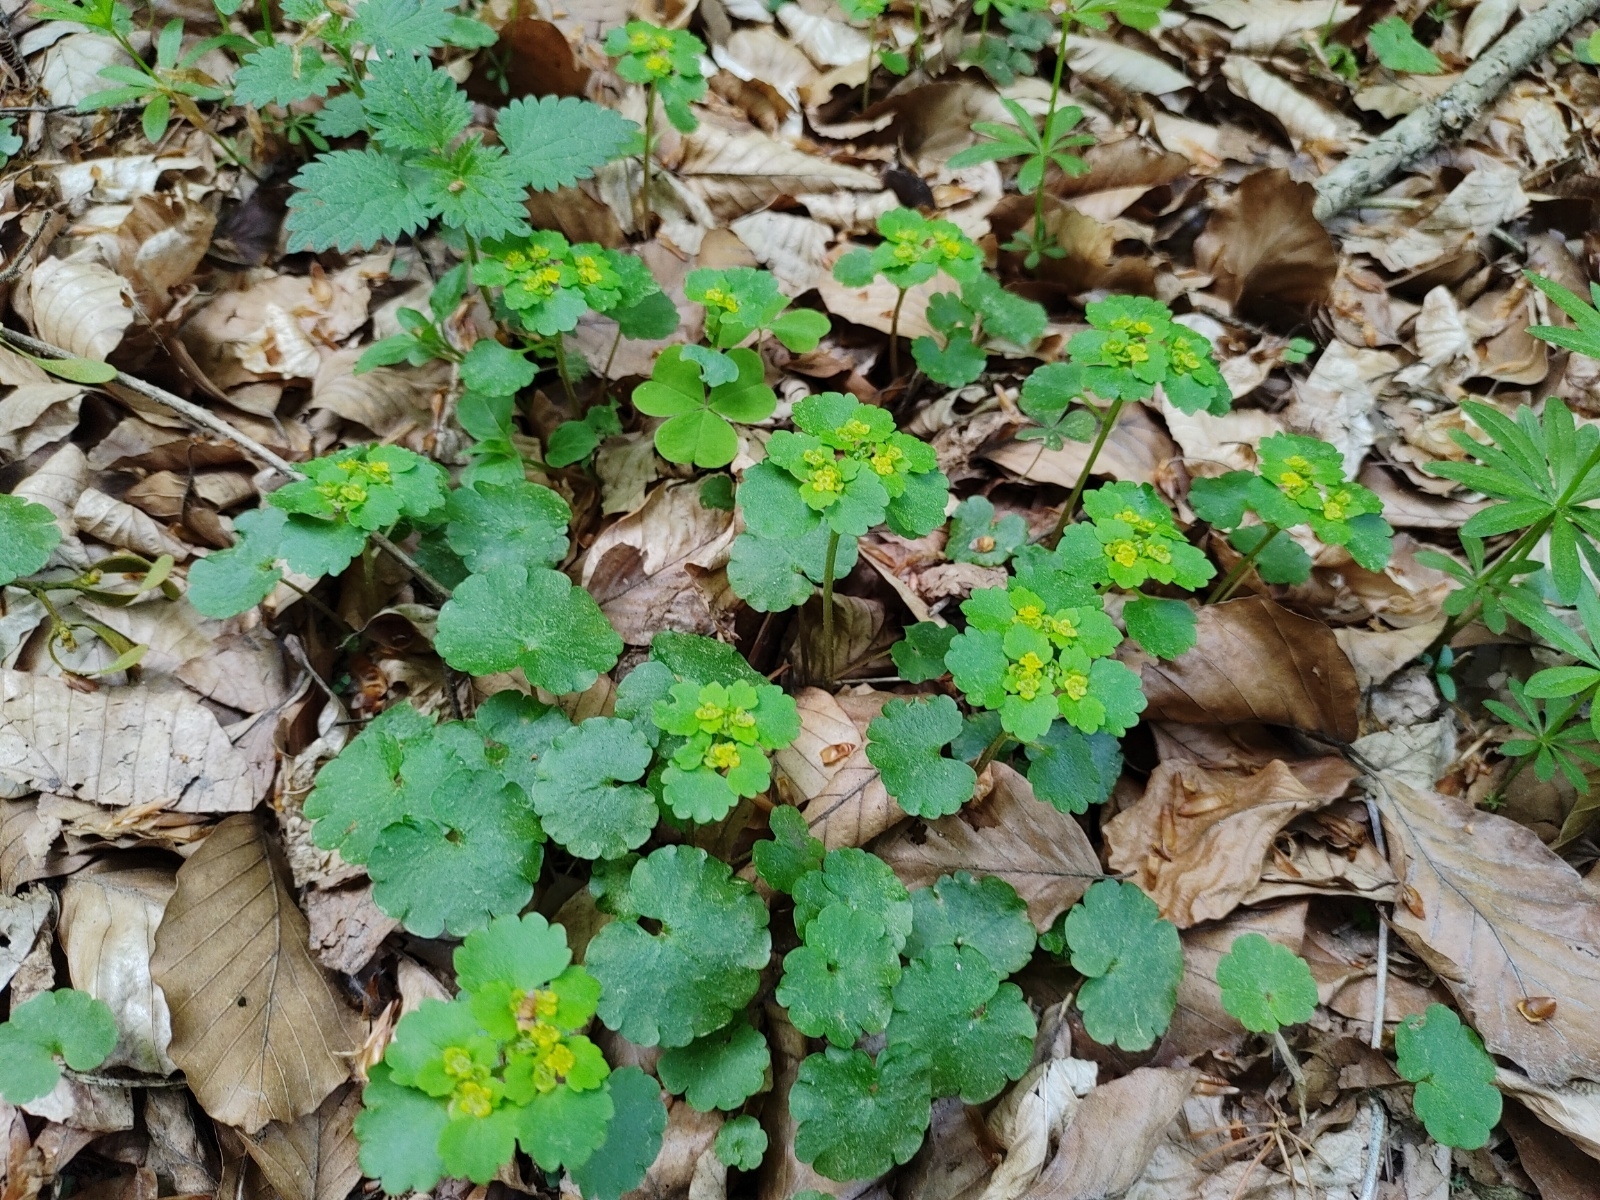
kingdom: Plantae
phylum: Tracheophyta
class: Magnoliopsida
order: Saxifragales
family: Saxifragaceae
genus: Chrysosplenium
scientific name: Chrysosplenium alternifolium
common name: Alternate-leaved golden-saxifrage
